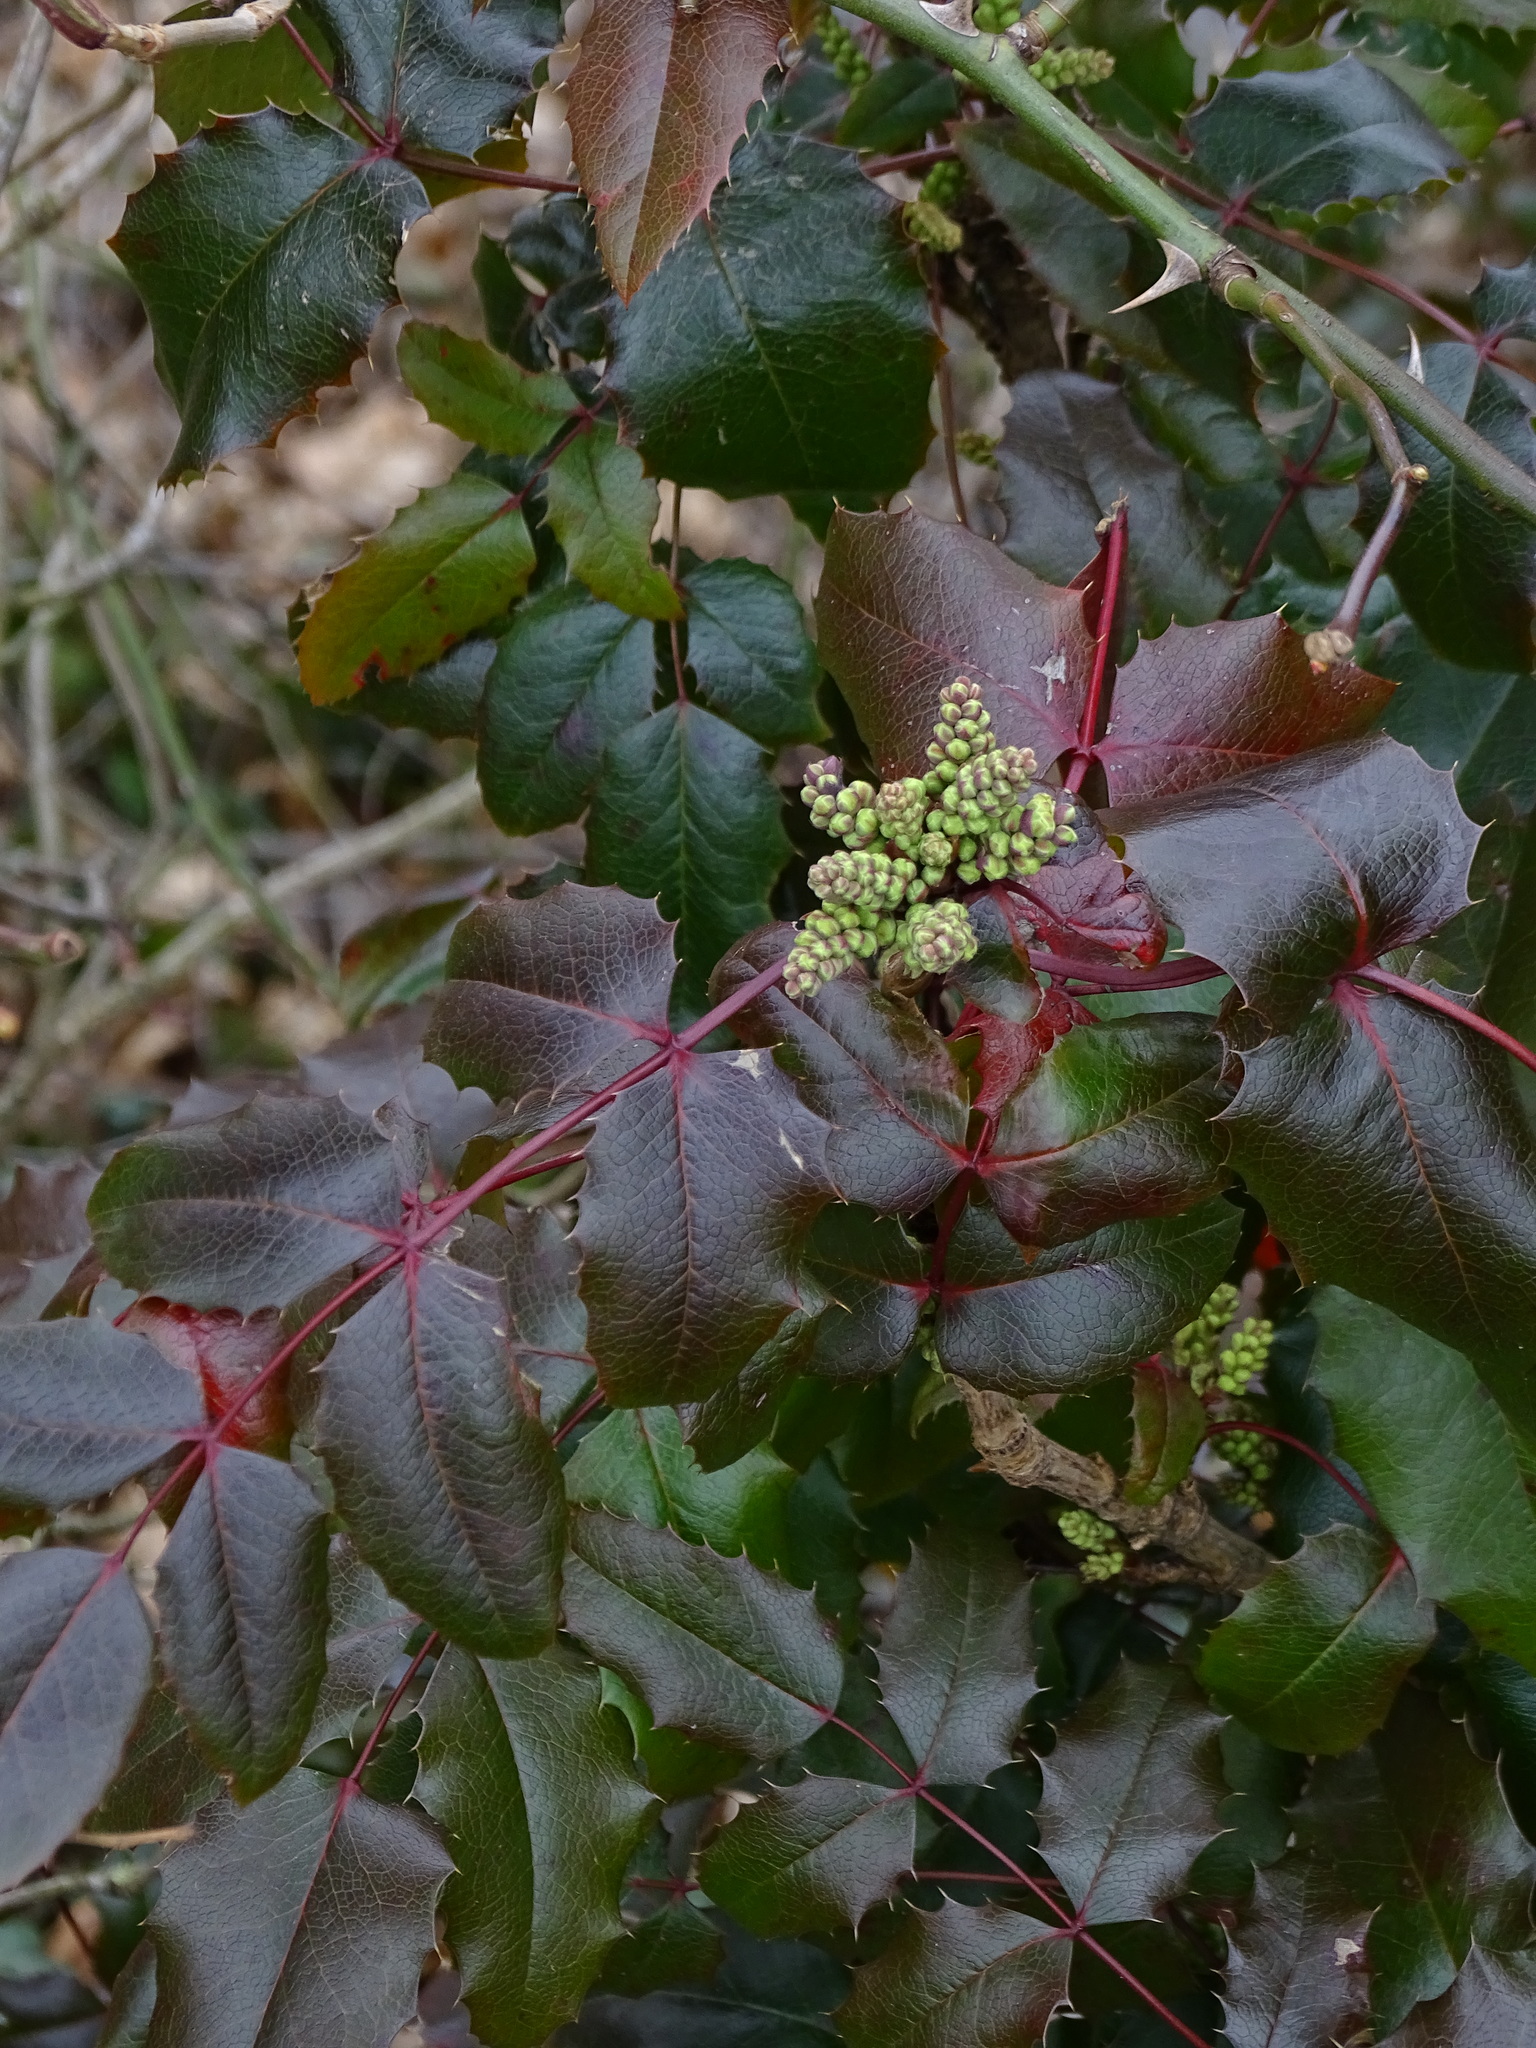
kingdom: Plantae
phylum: Tracheophyta
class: Magnoliopsida
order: Ranunculales
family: Berberidaceae
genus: Mahonia
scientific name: Mahonia aquifolium
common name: Oregon-grape
